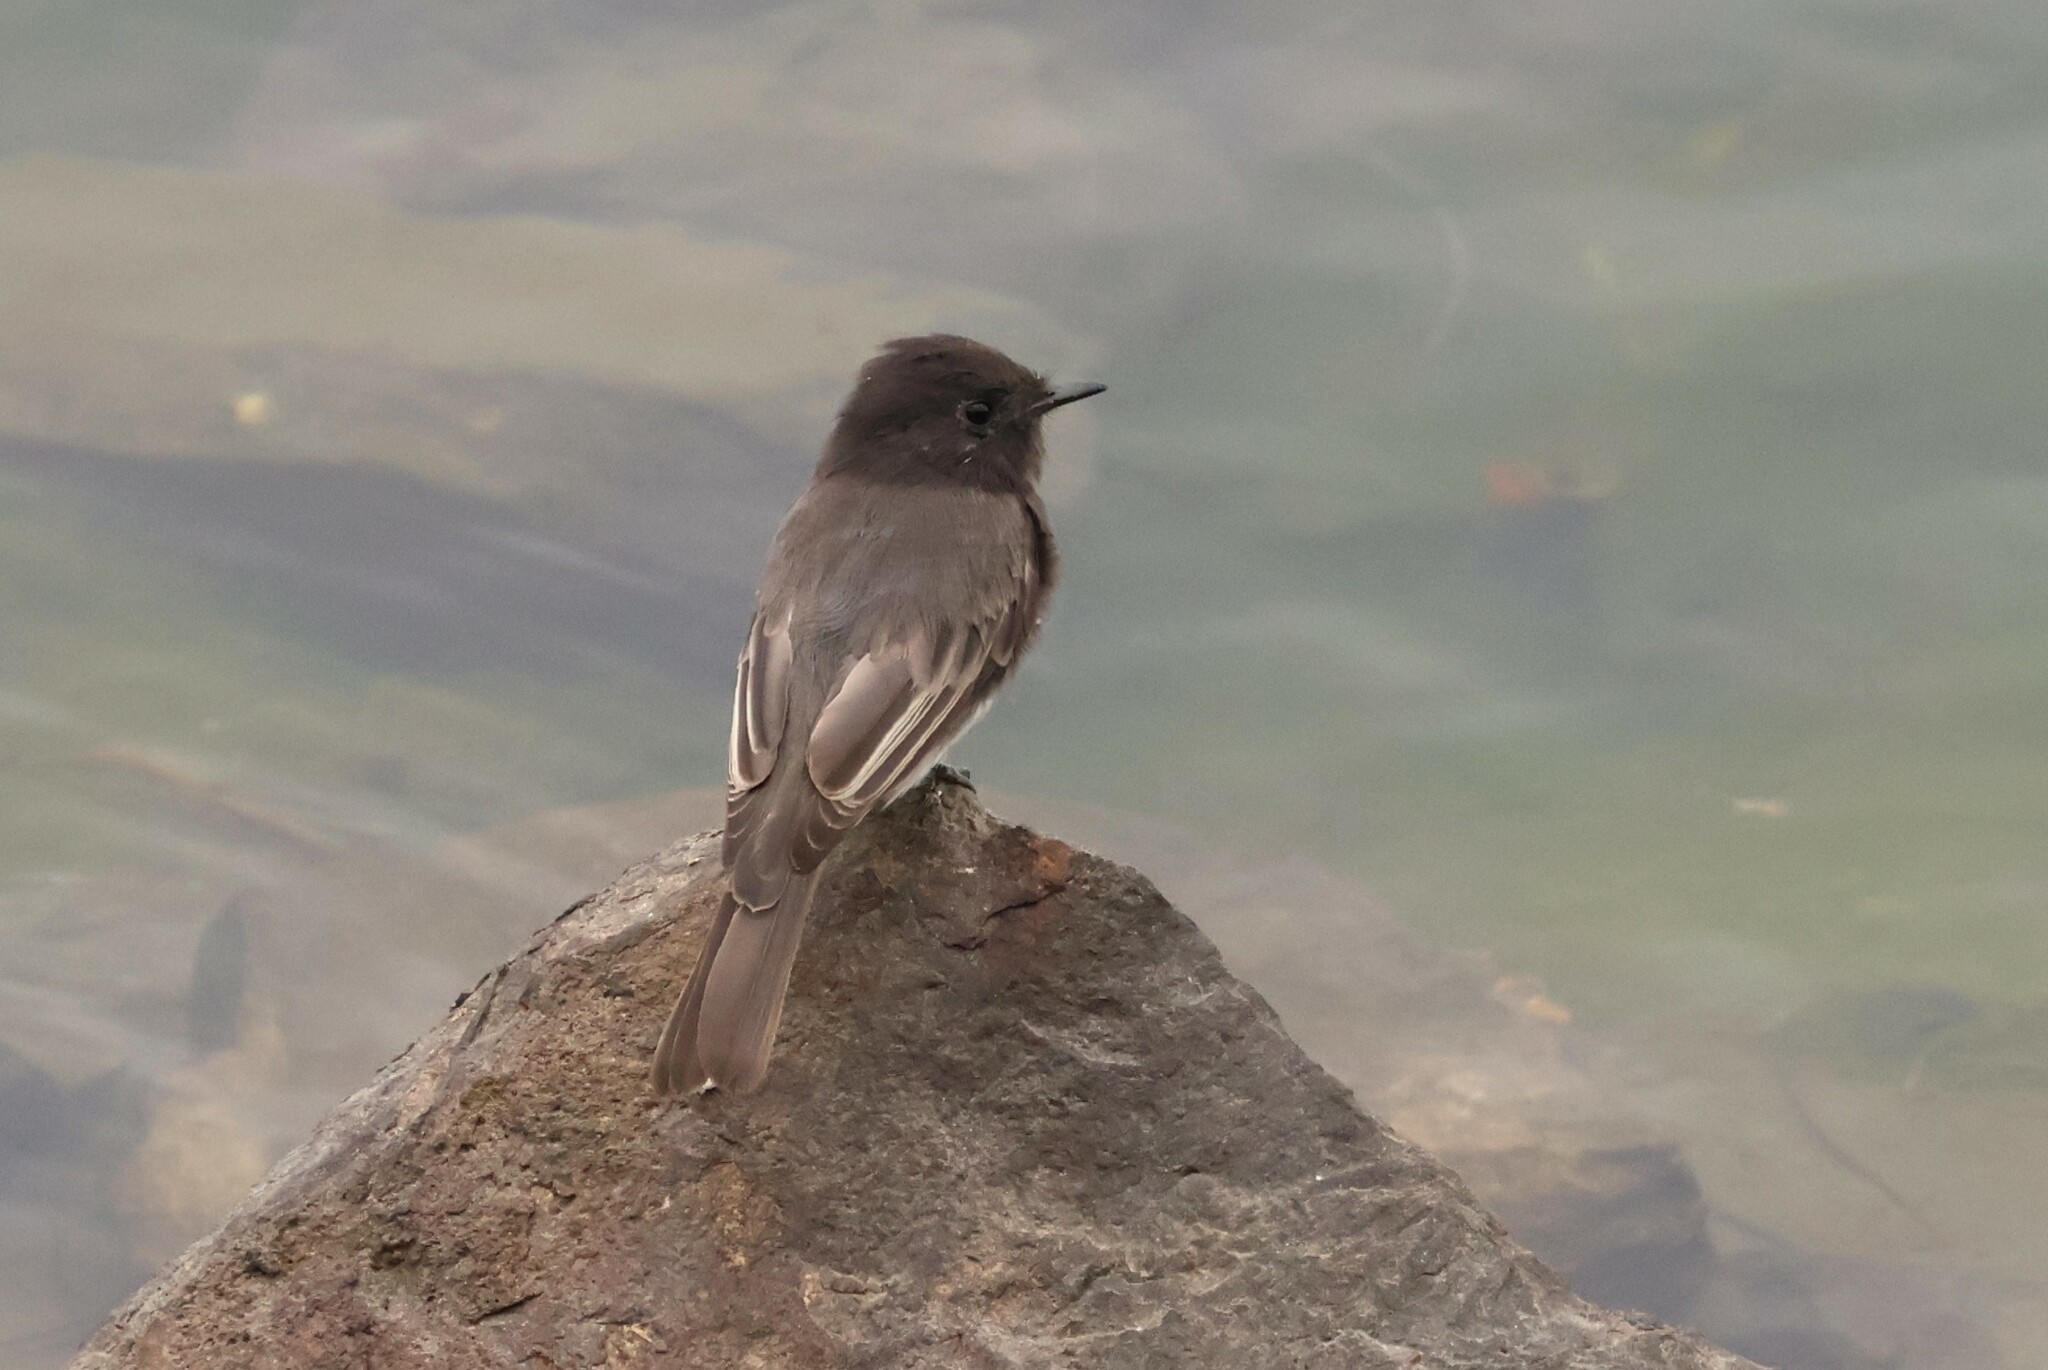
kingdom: Animalia
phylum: Chordata
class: Aves
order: Passeriformes
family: Tyrannidae
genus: Sayornis
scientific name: Sayornis nigricans
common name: Black phoebe
